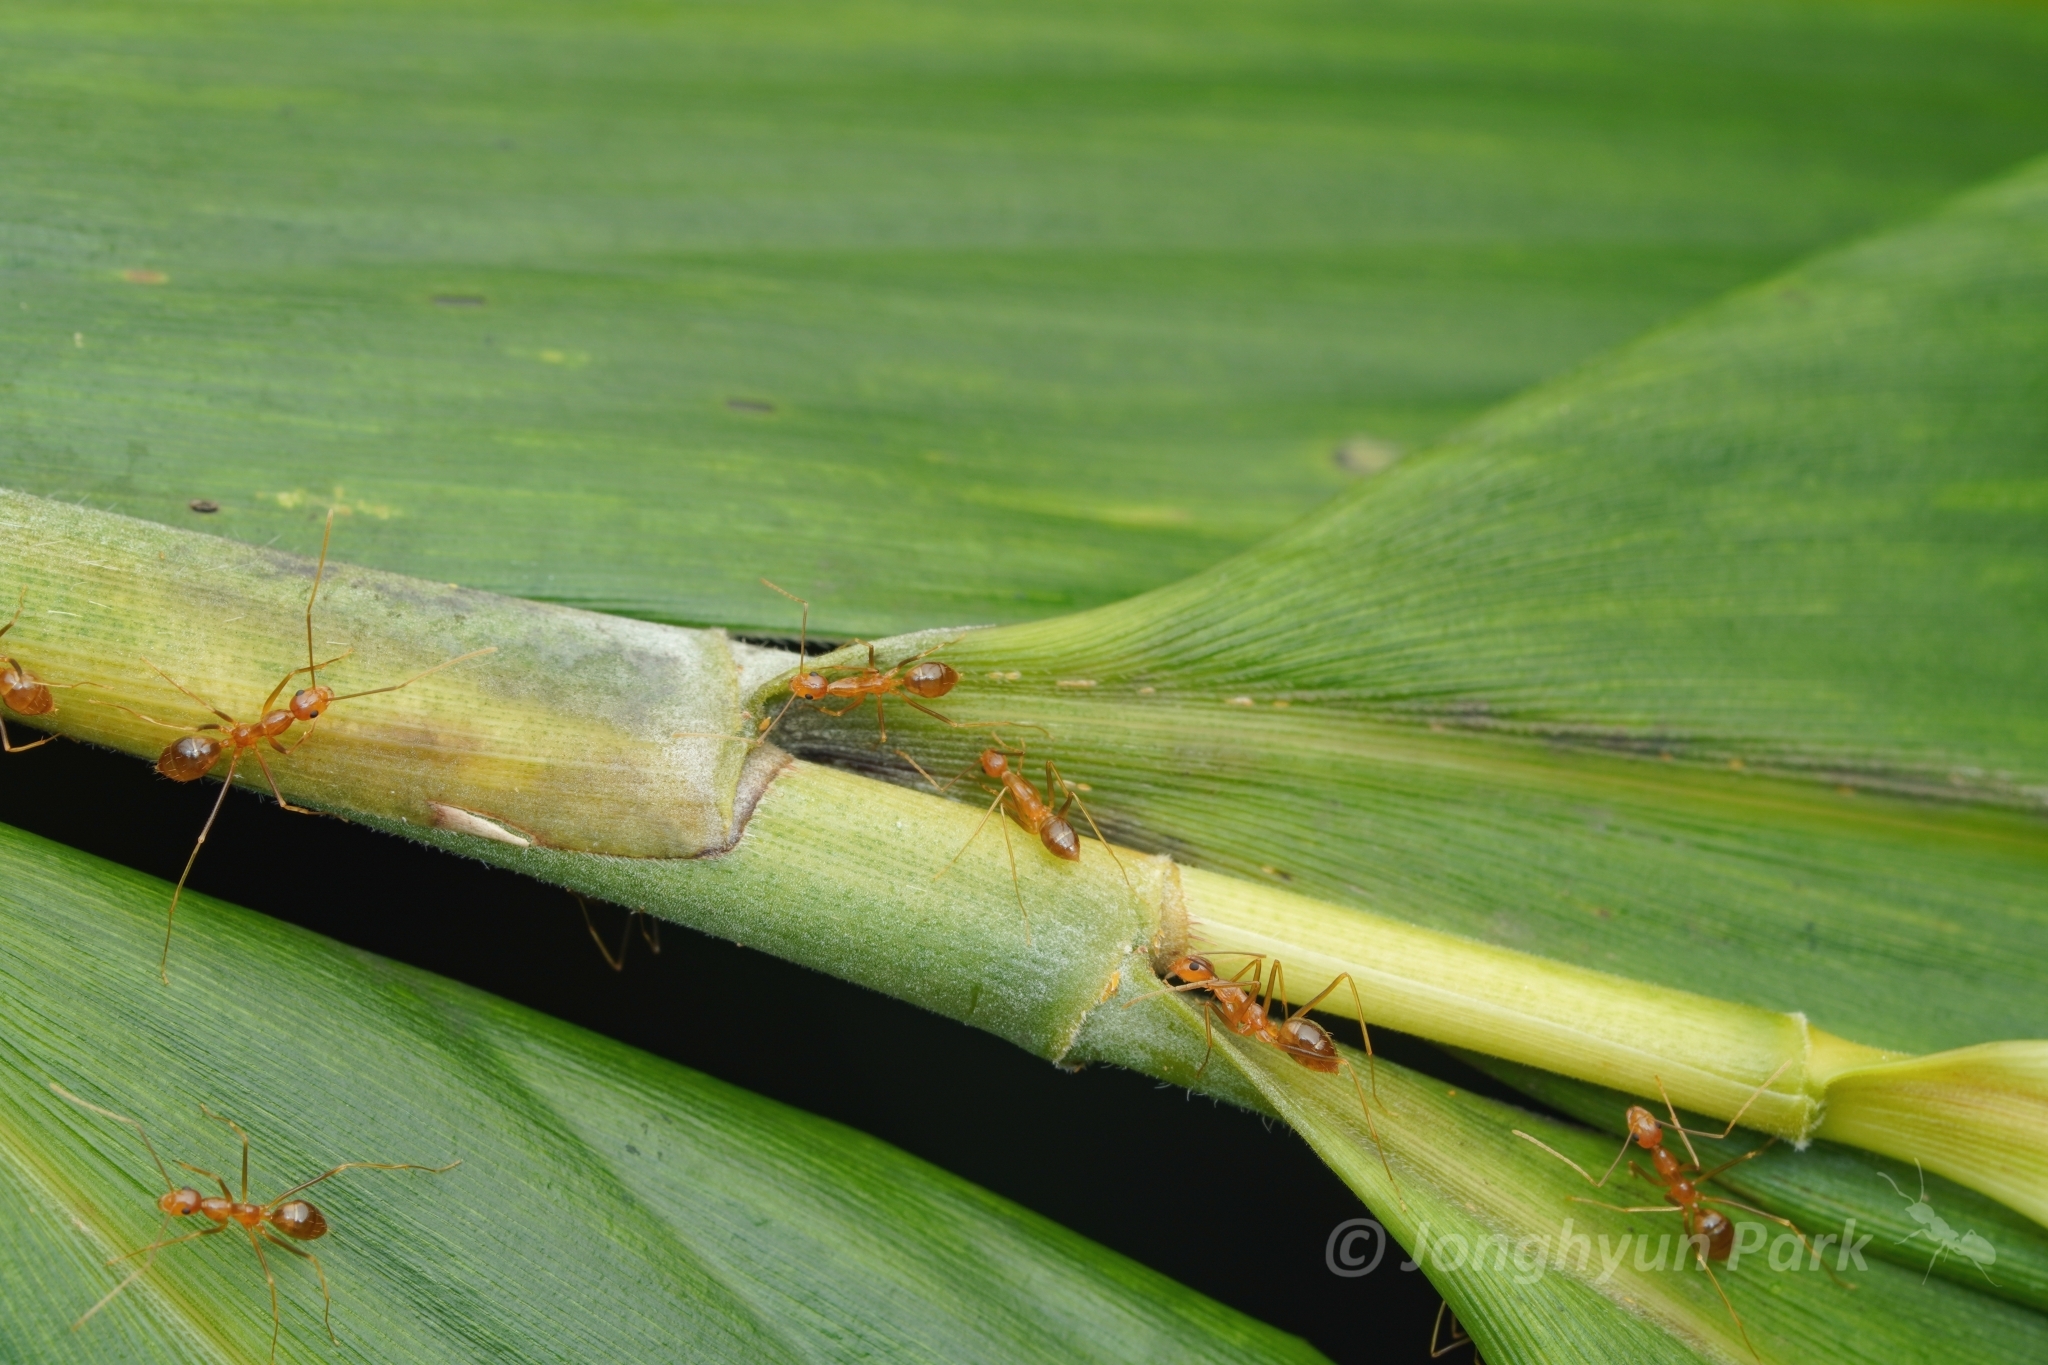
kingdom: Animalia
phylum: Arthropoda
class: Insecta
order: Hymenoptera
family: Formicidae
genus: Anoplolepis
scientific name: Anoplolepis gracilipes
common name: Ant
